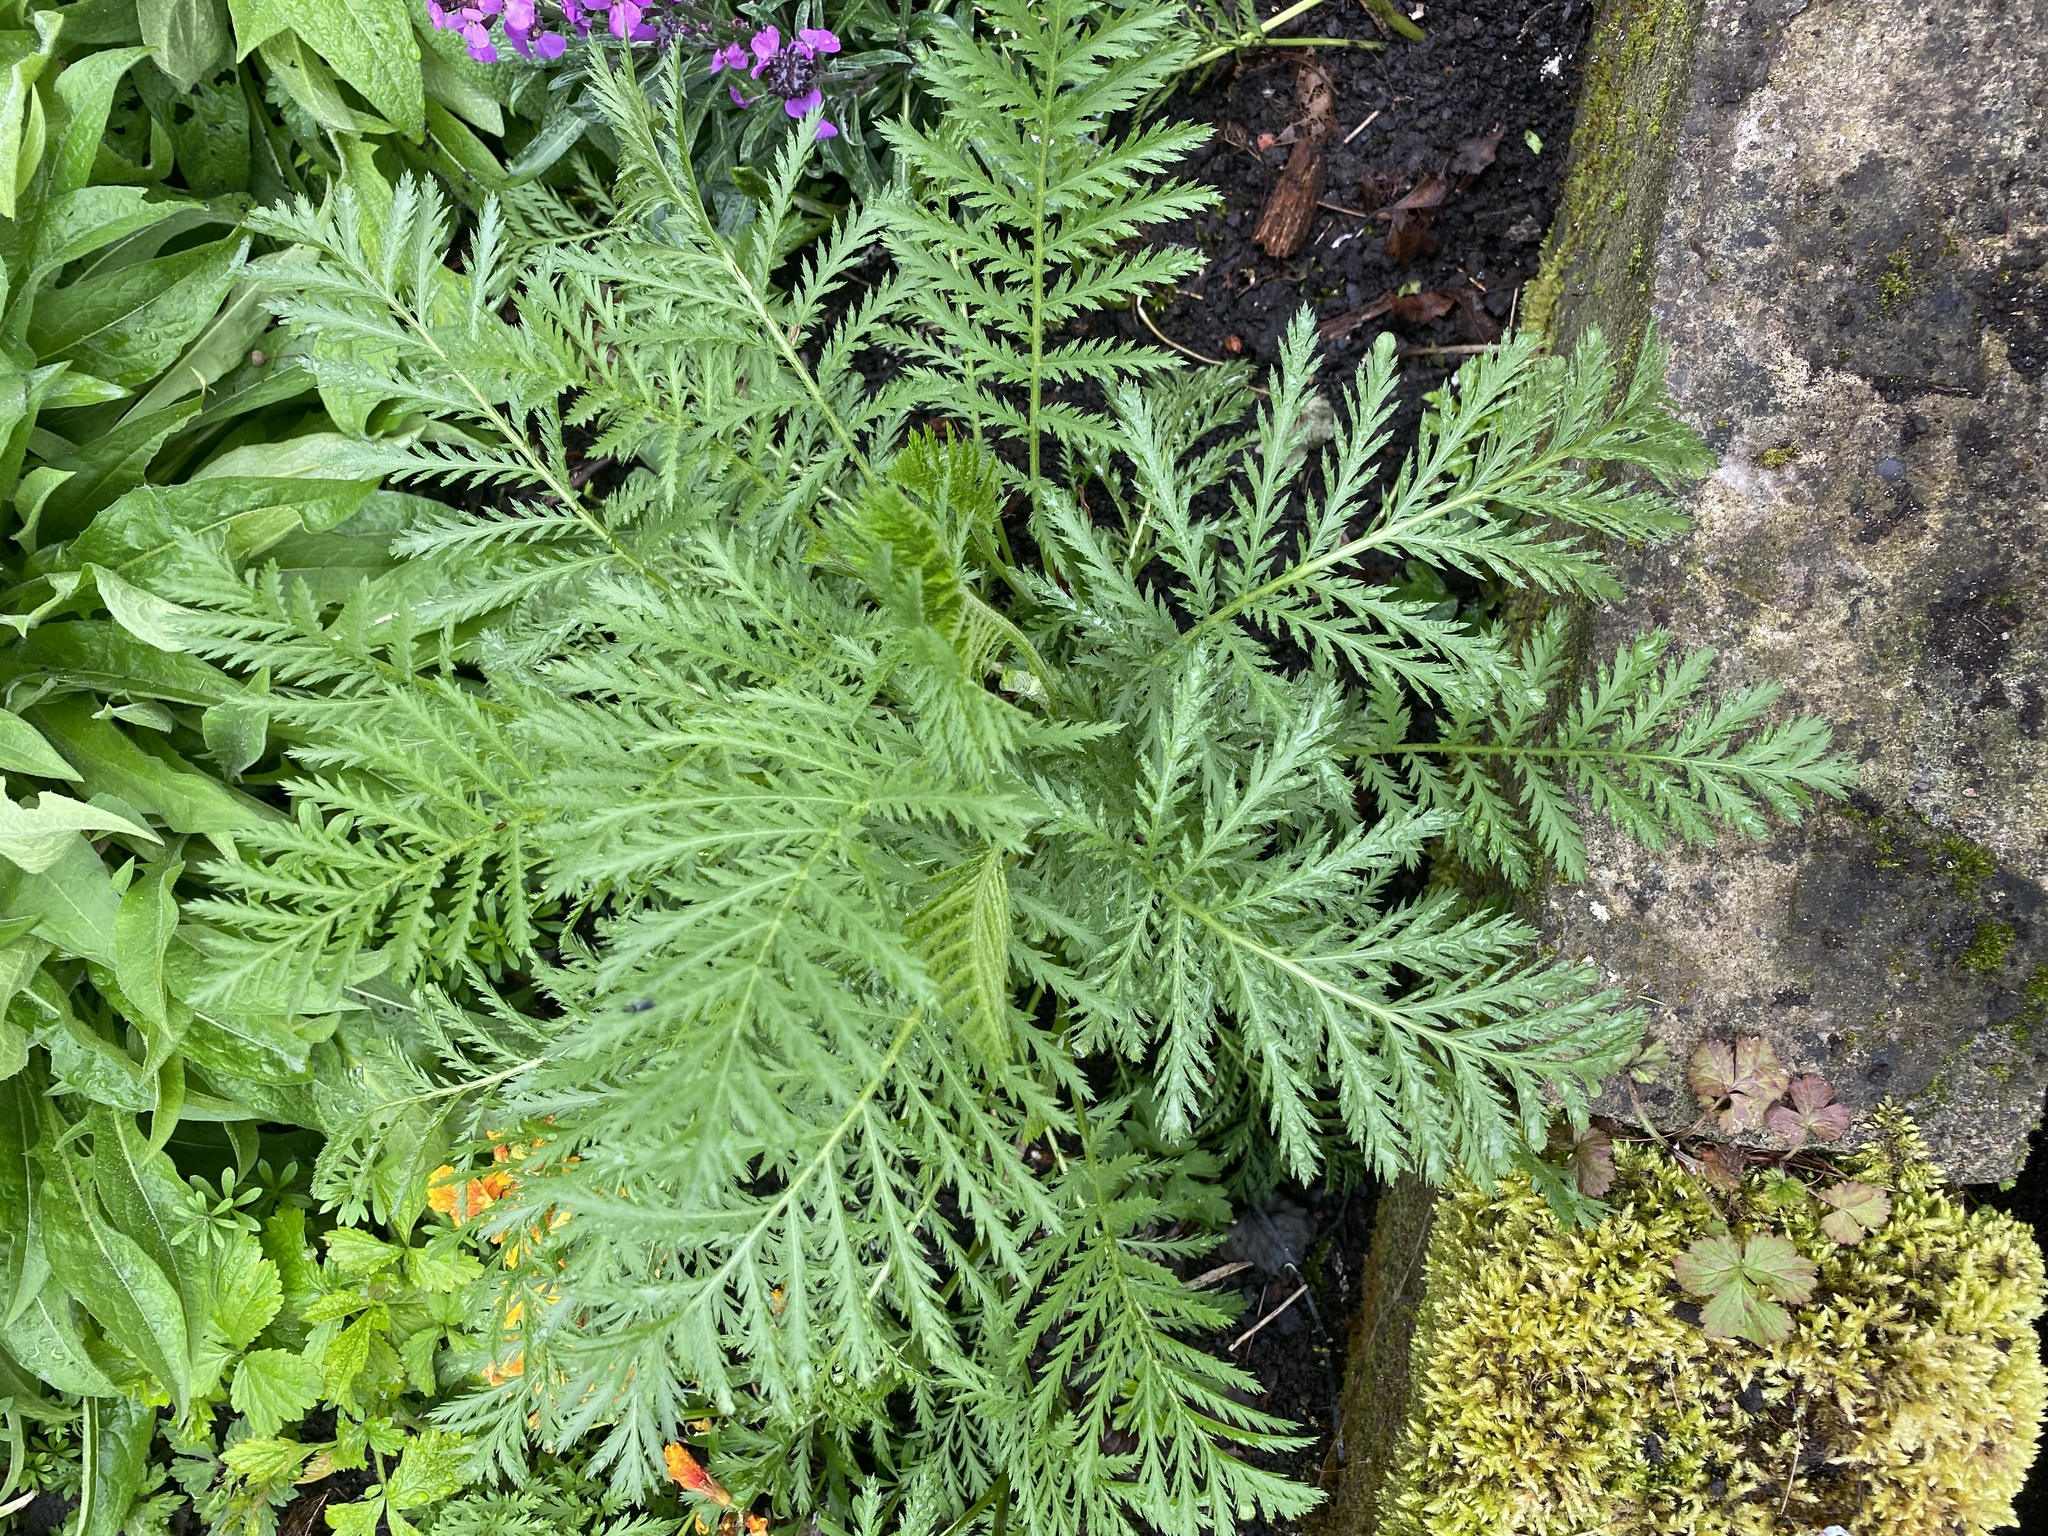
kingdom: Plantae
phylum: Tracheophyta
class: Magnoliopsida
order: Asterales
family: Asteraceae
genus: Tanacetum
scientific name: Tanacetum vulgare
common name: Common tansy
